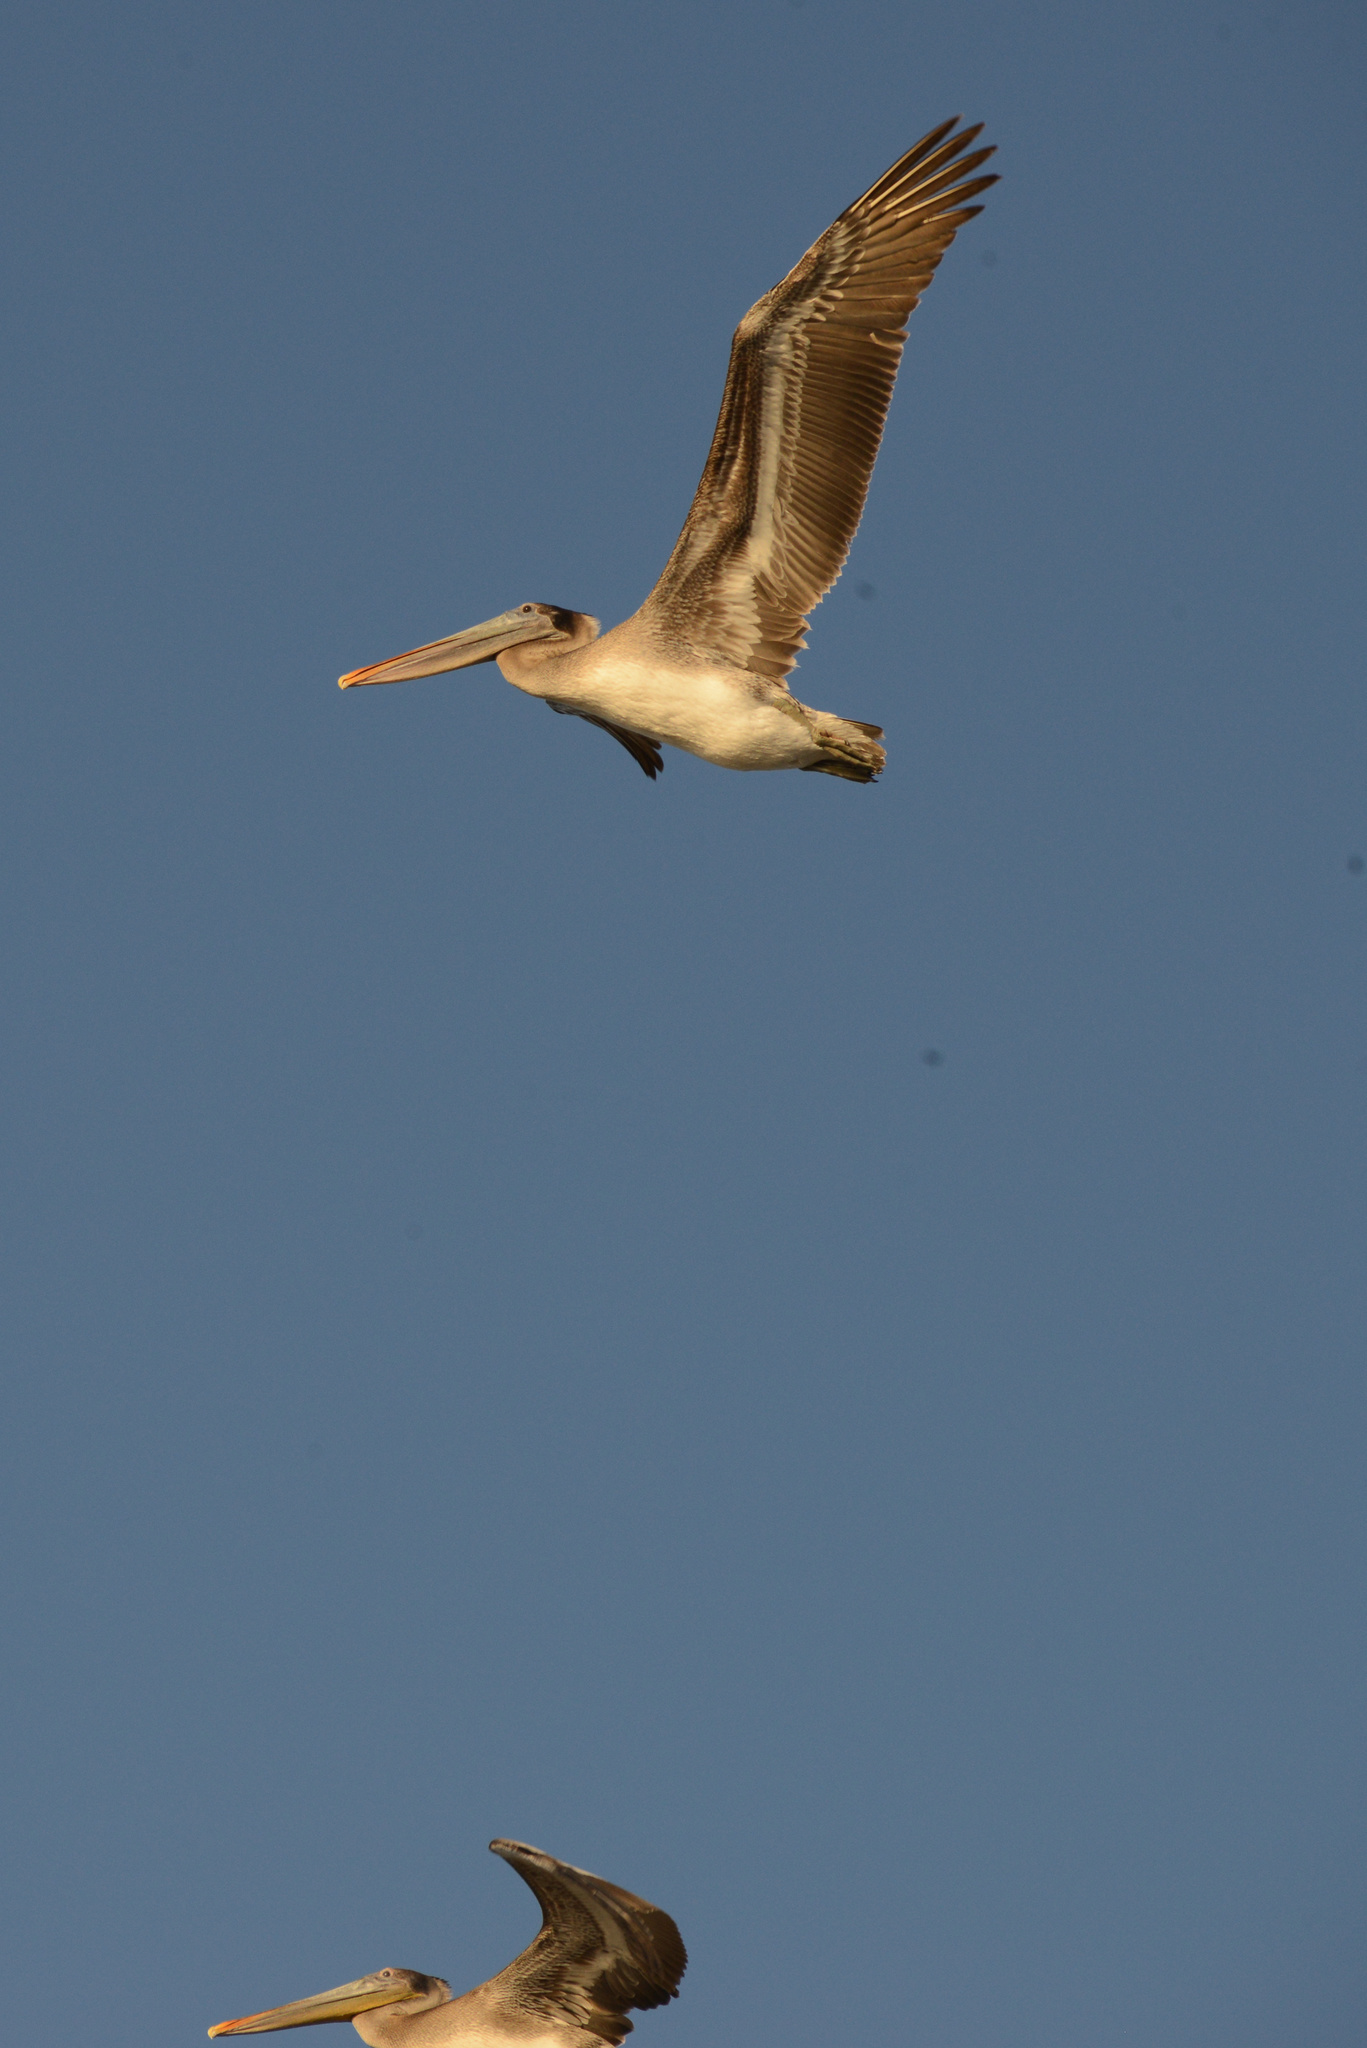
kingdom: Animalia
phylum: Chordata
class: Aves
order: Pelecaniformes
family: Pelecanidae
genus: Pelecanus
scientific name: Pelecanus occidentalis
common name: Brown pelican
